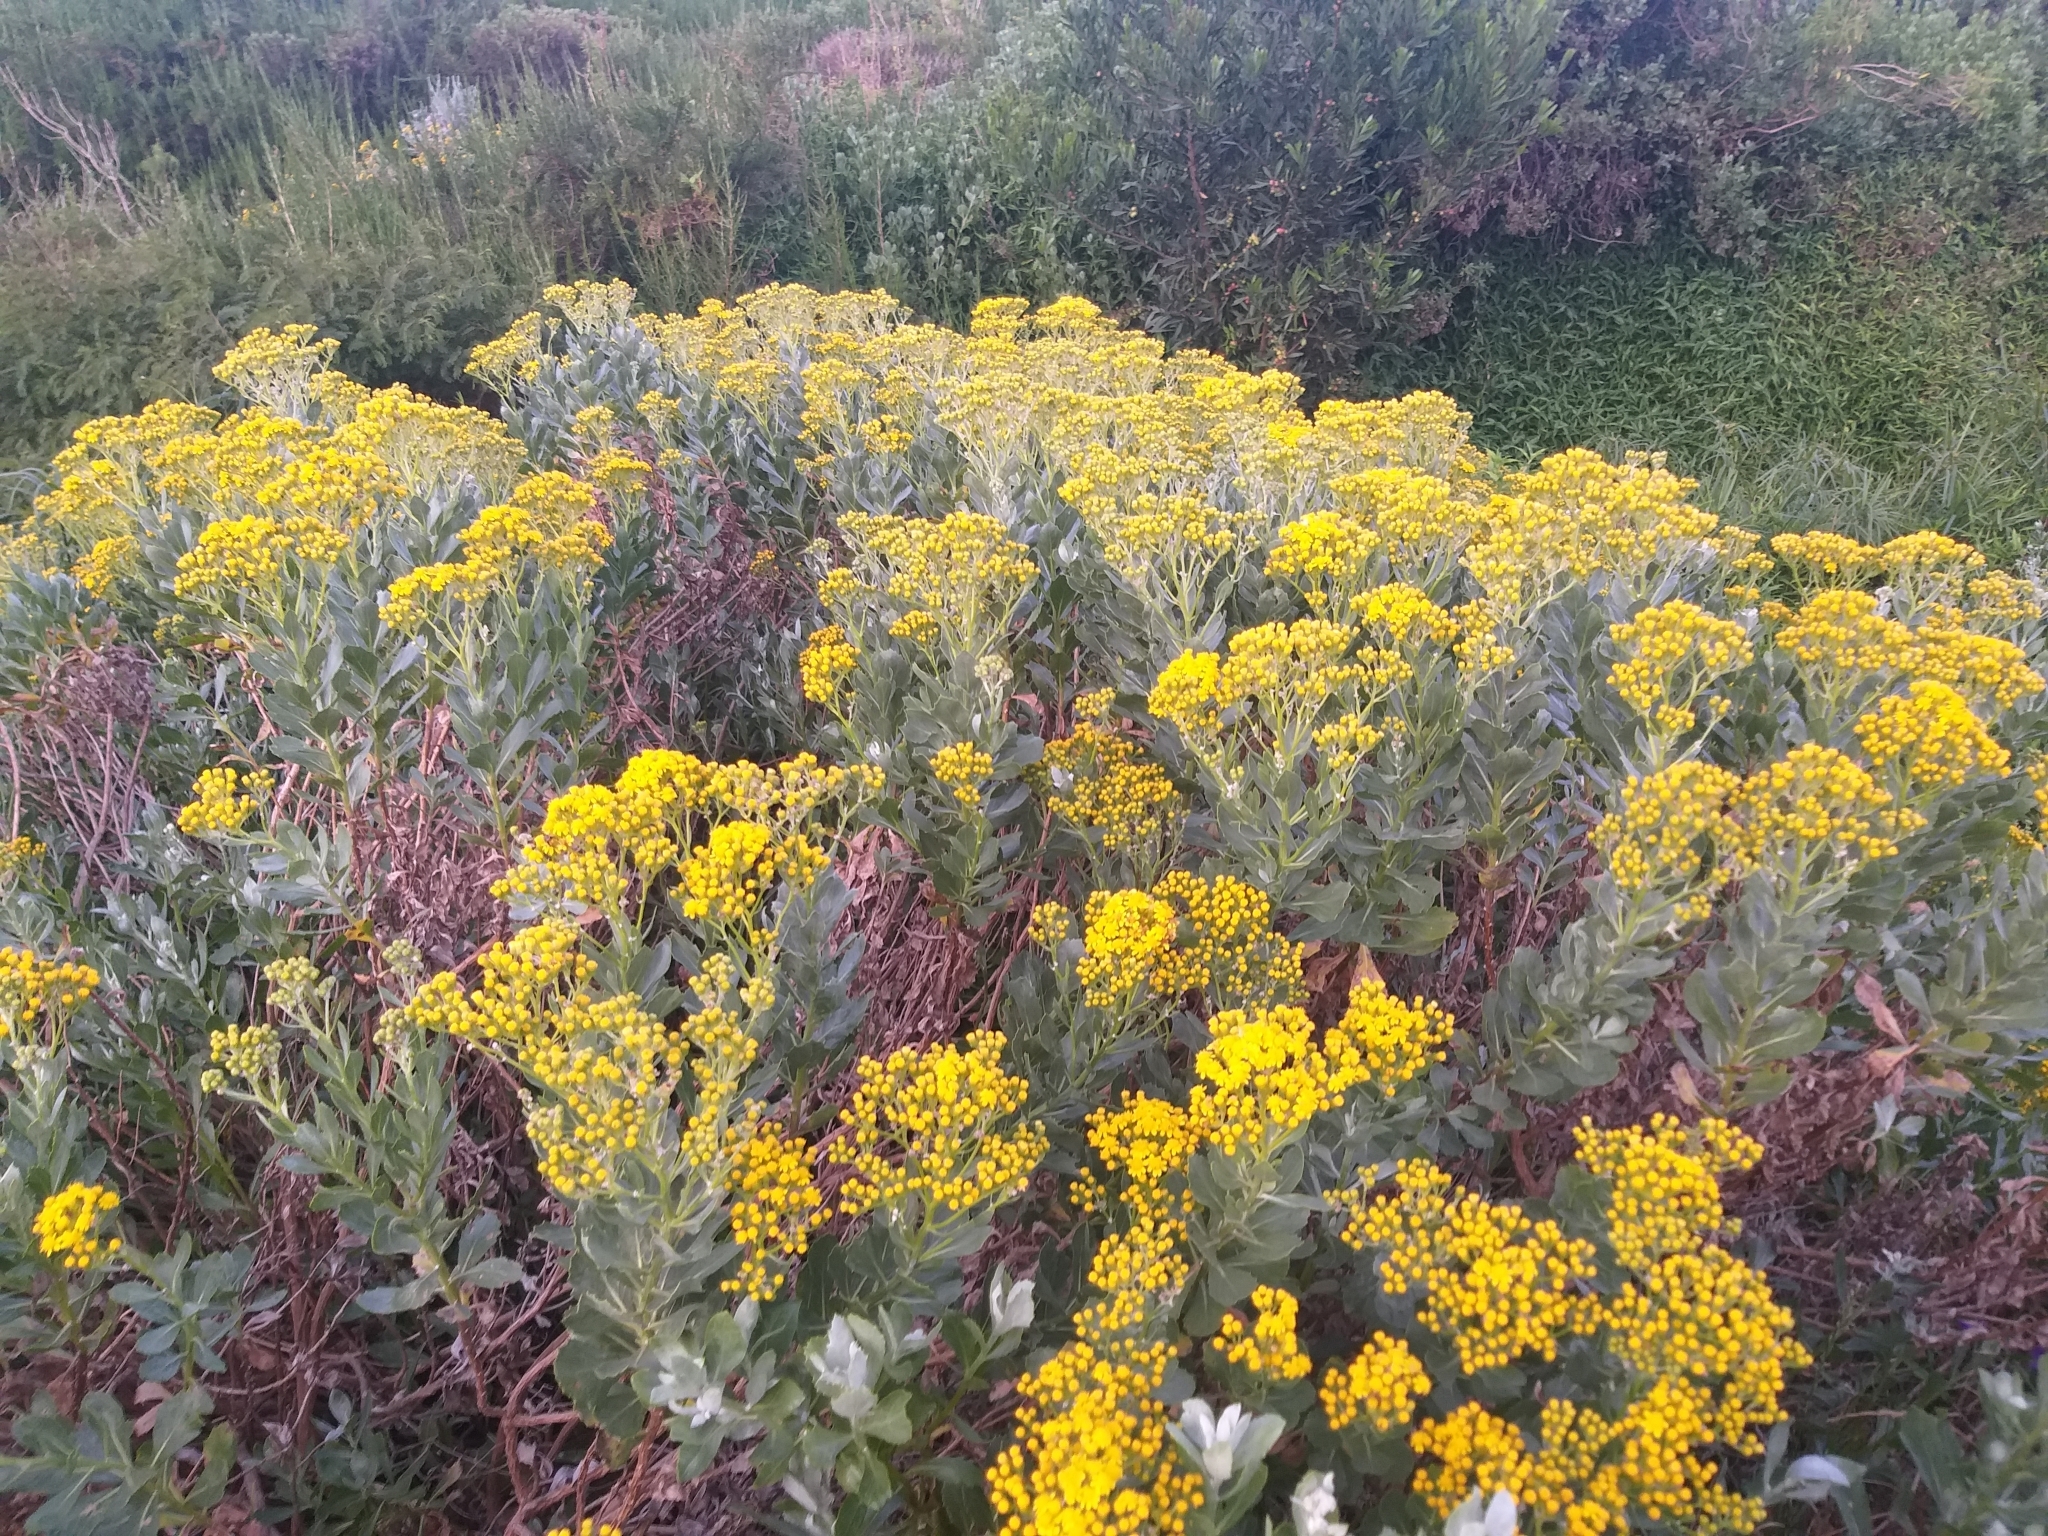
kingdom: Plantae
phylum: Tracheophyta
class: Magnoliopsida
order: Asterales
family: Asteraceae
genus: Senecio
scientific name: Senecio halimifolius
